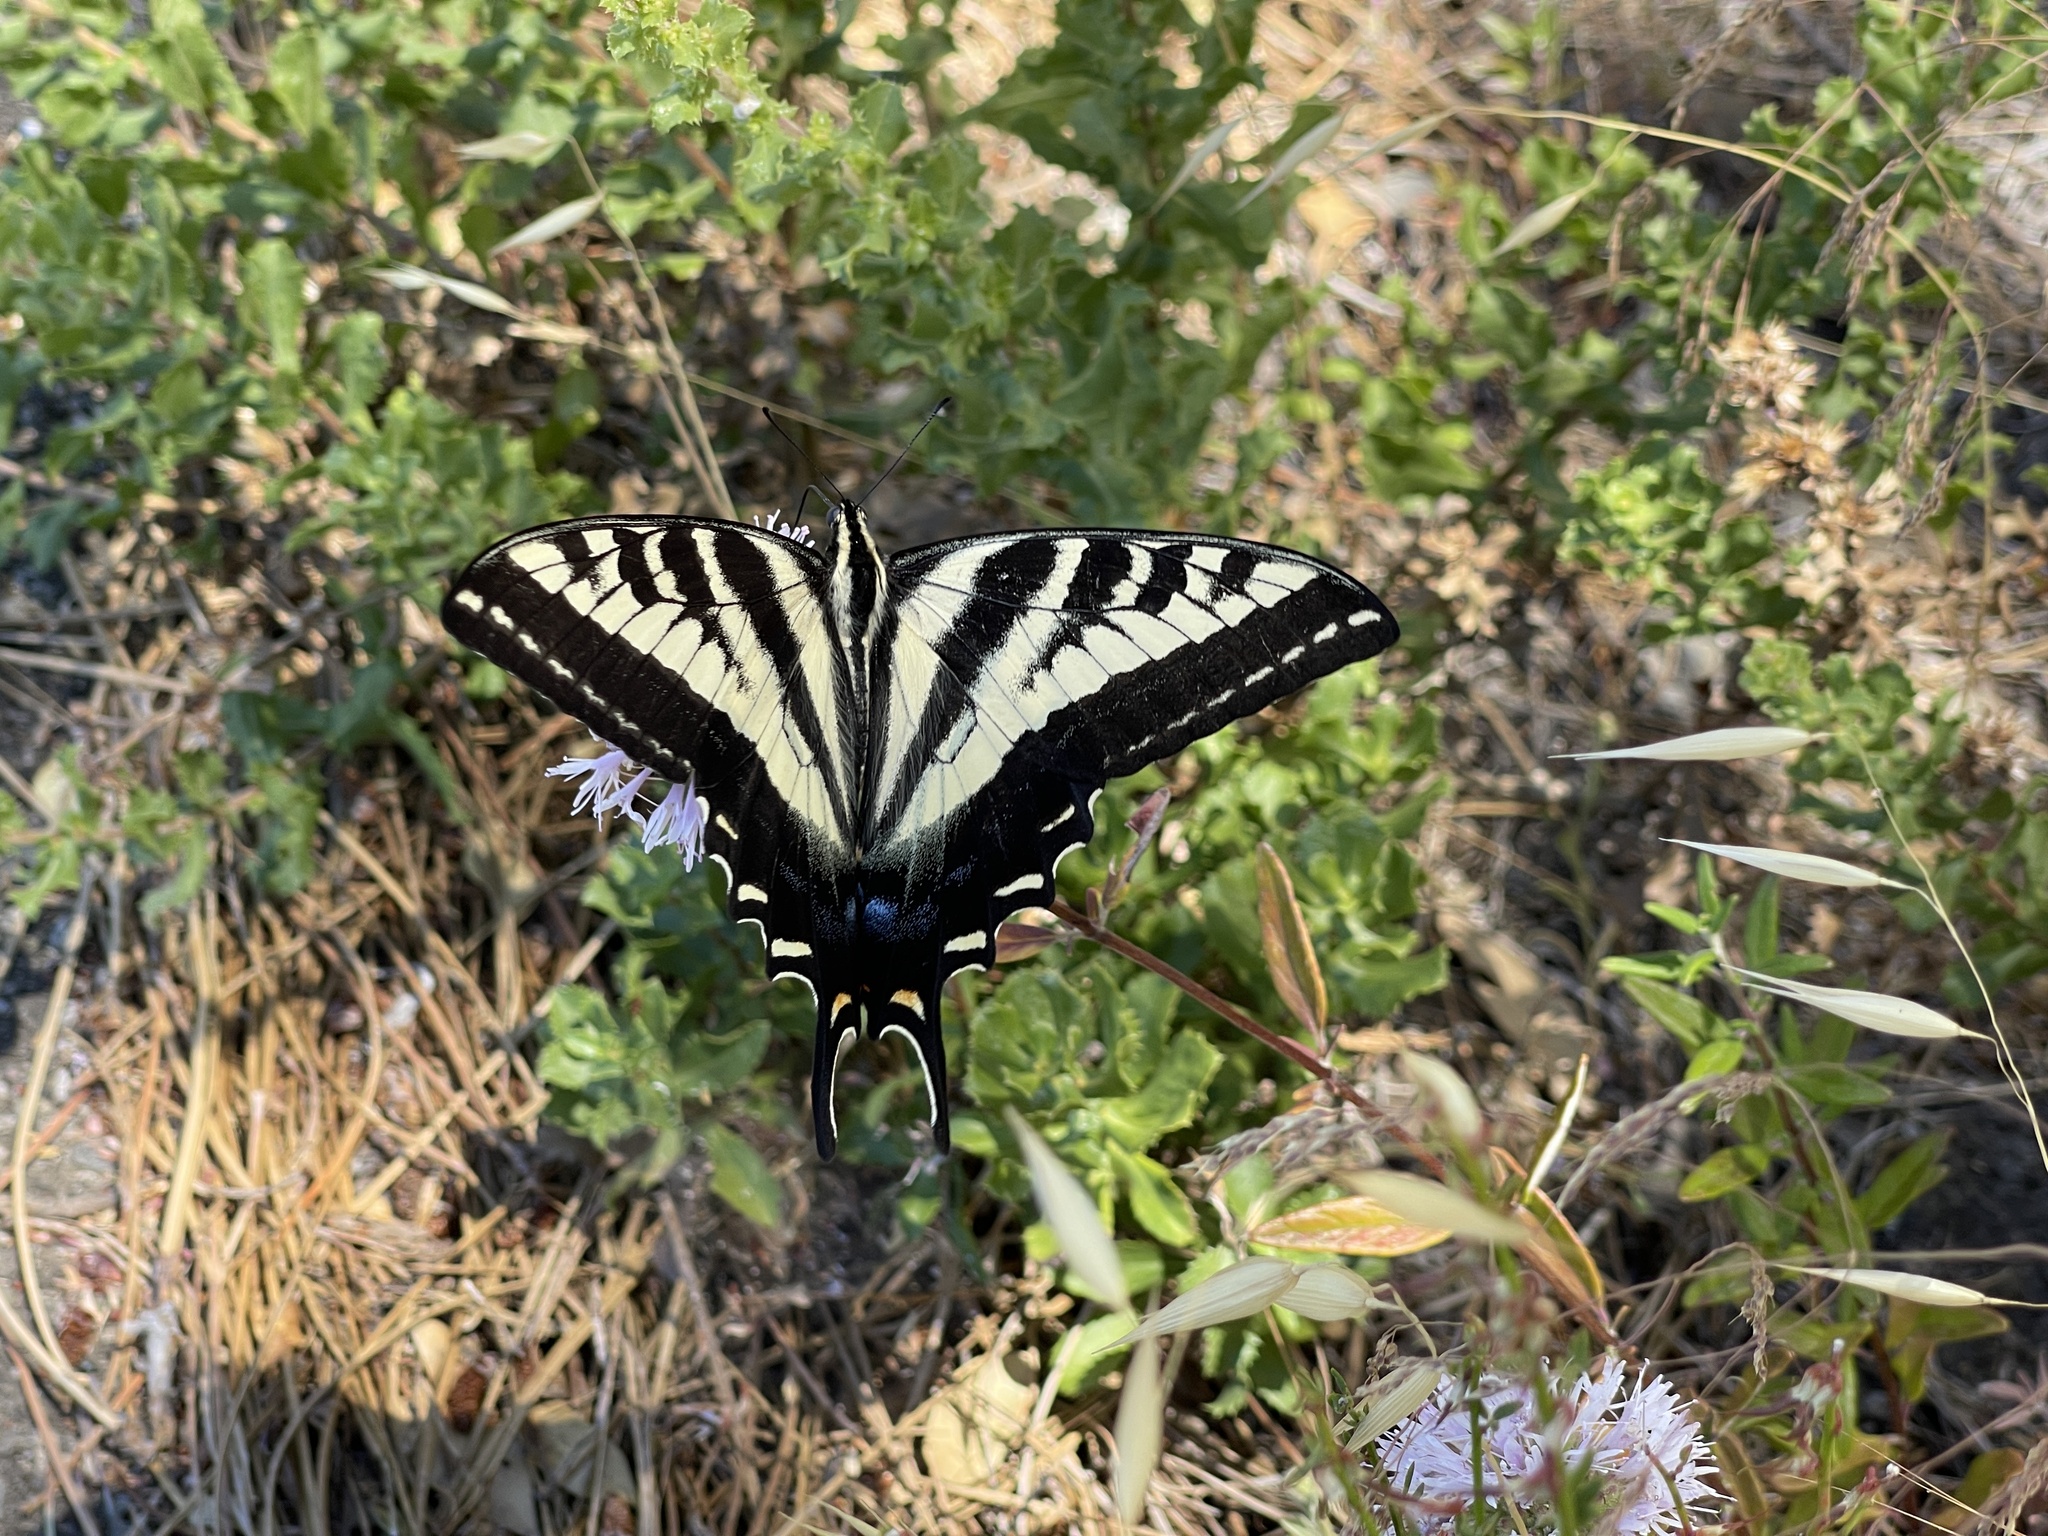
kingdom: Animalia
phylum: Arthropoda
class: Insecta
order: Lepidoptera
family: Papilionidae
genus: Papilio
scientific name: Papilio eurymedon
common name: Pale tiger swallowtail
